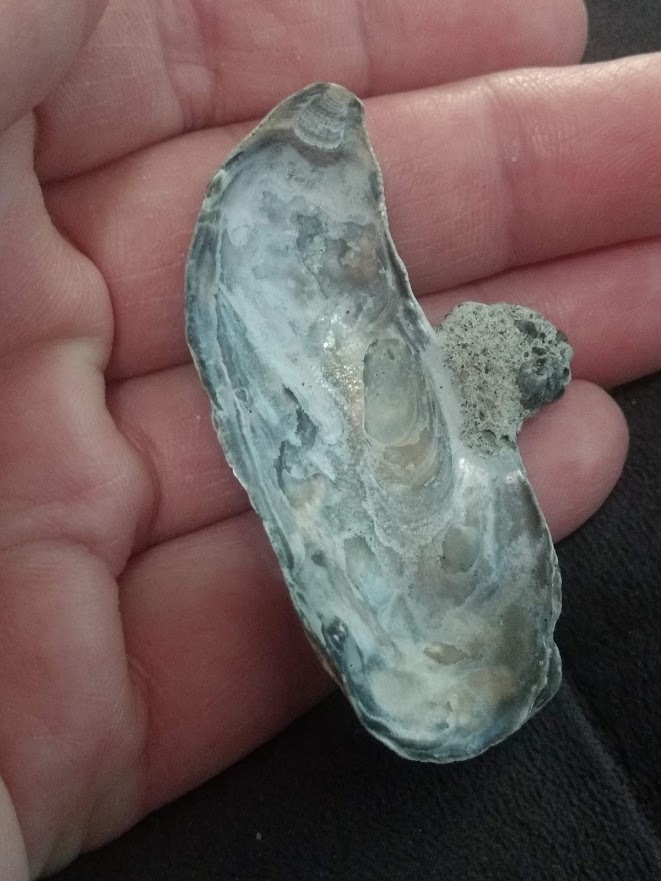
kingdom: Animalia
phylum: Mollusca
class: Bivalvia
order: Ostreida
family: Ostreidae
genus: Ostrea
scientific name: Ostrea lurida
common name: Olympia flat oyster
